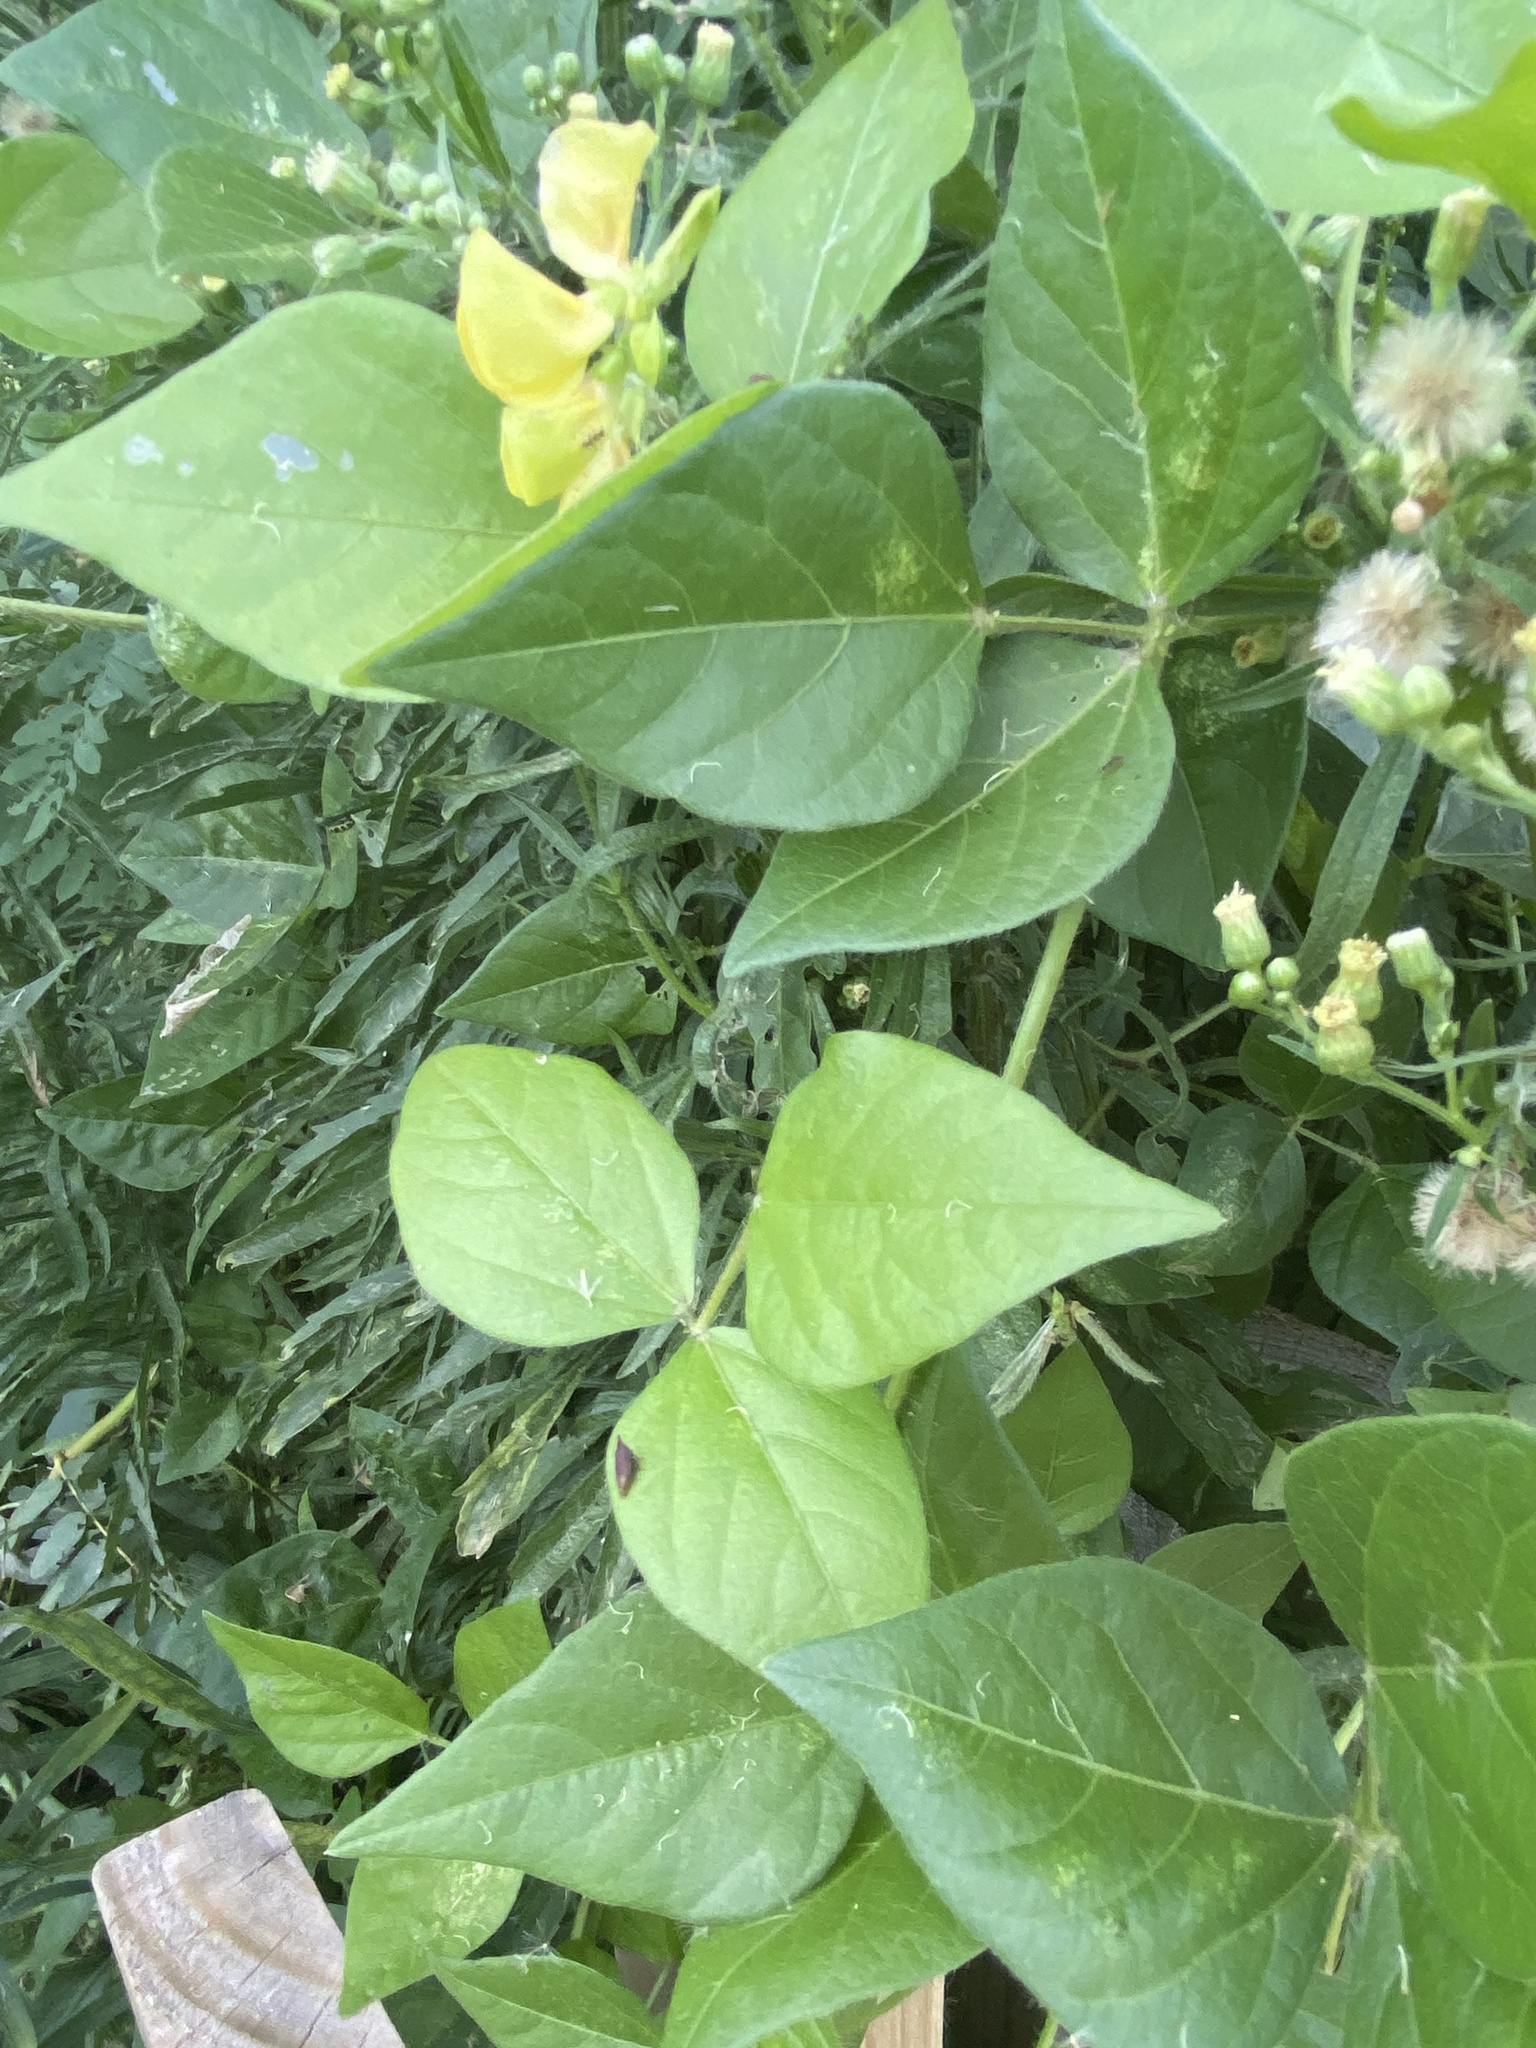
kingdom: Plantae
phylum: Tracheophyta
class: Magnoliopsida
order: Fabales
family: Fabaceae
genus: Vigna
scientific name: Vigna luteola
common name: Hairypod cowpea
